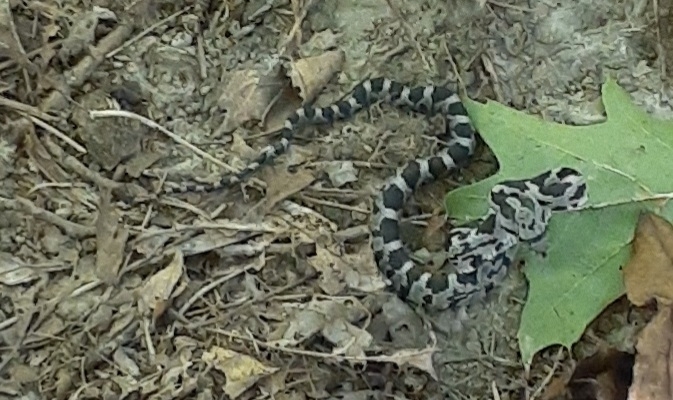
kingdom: Animalia
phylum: Chordata
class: Squamata
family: Colubridae
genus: Pantherophis
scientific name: Pantherophis spiloides
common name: Gray rat snake
